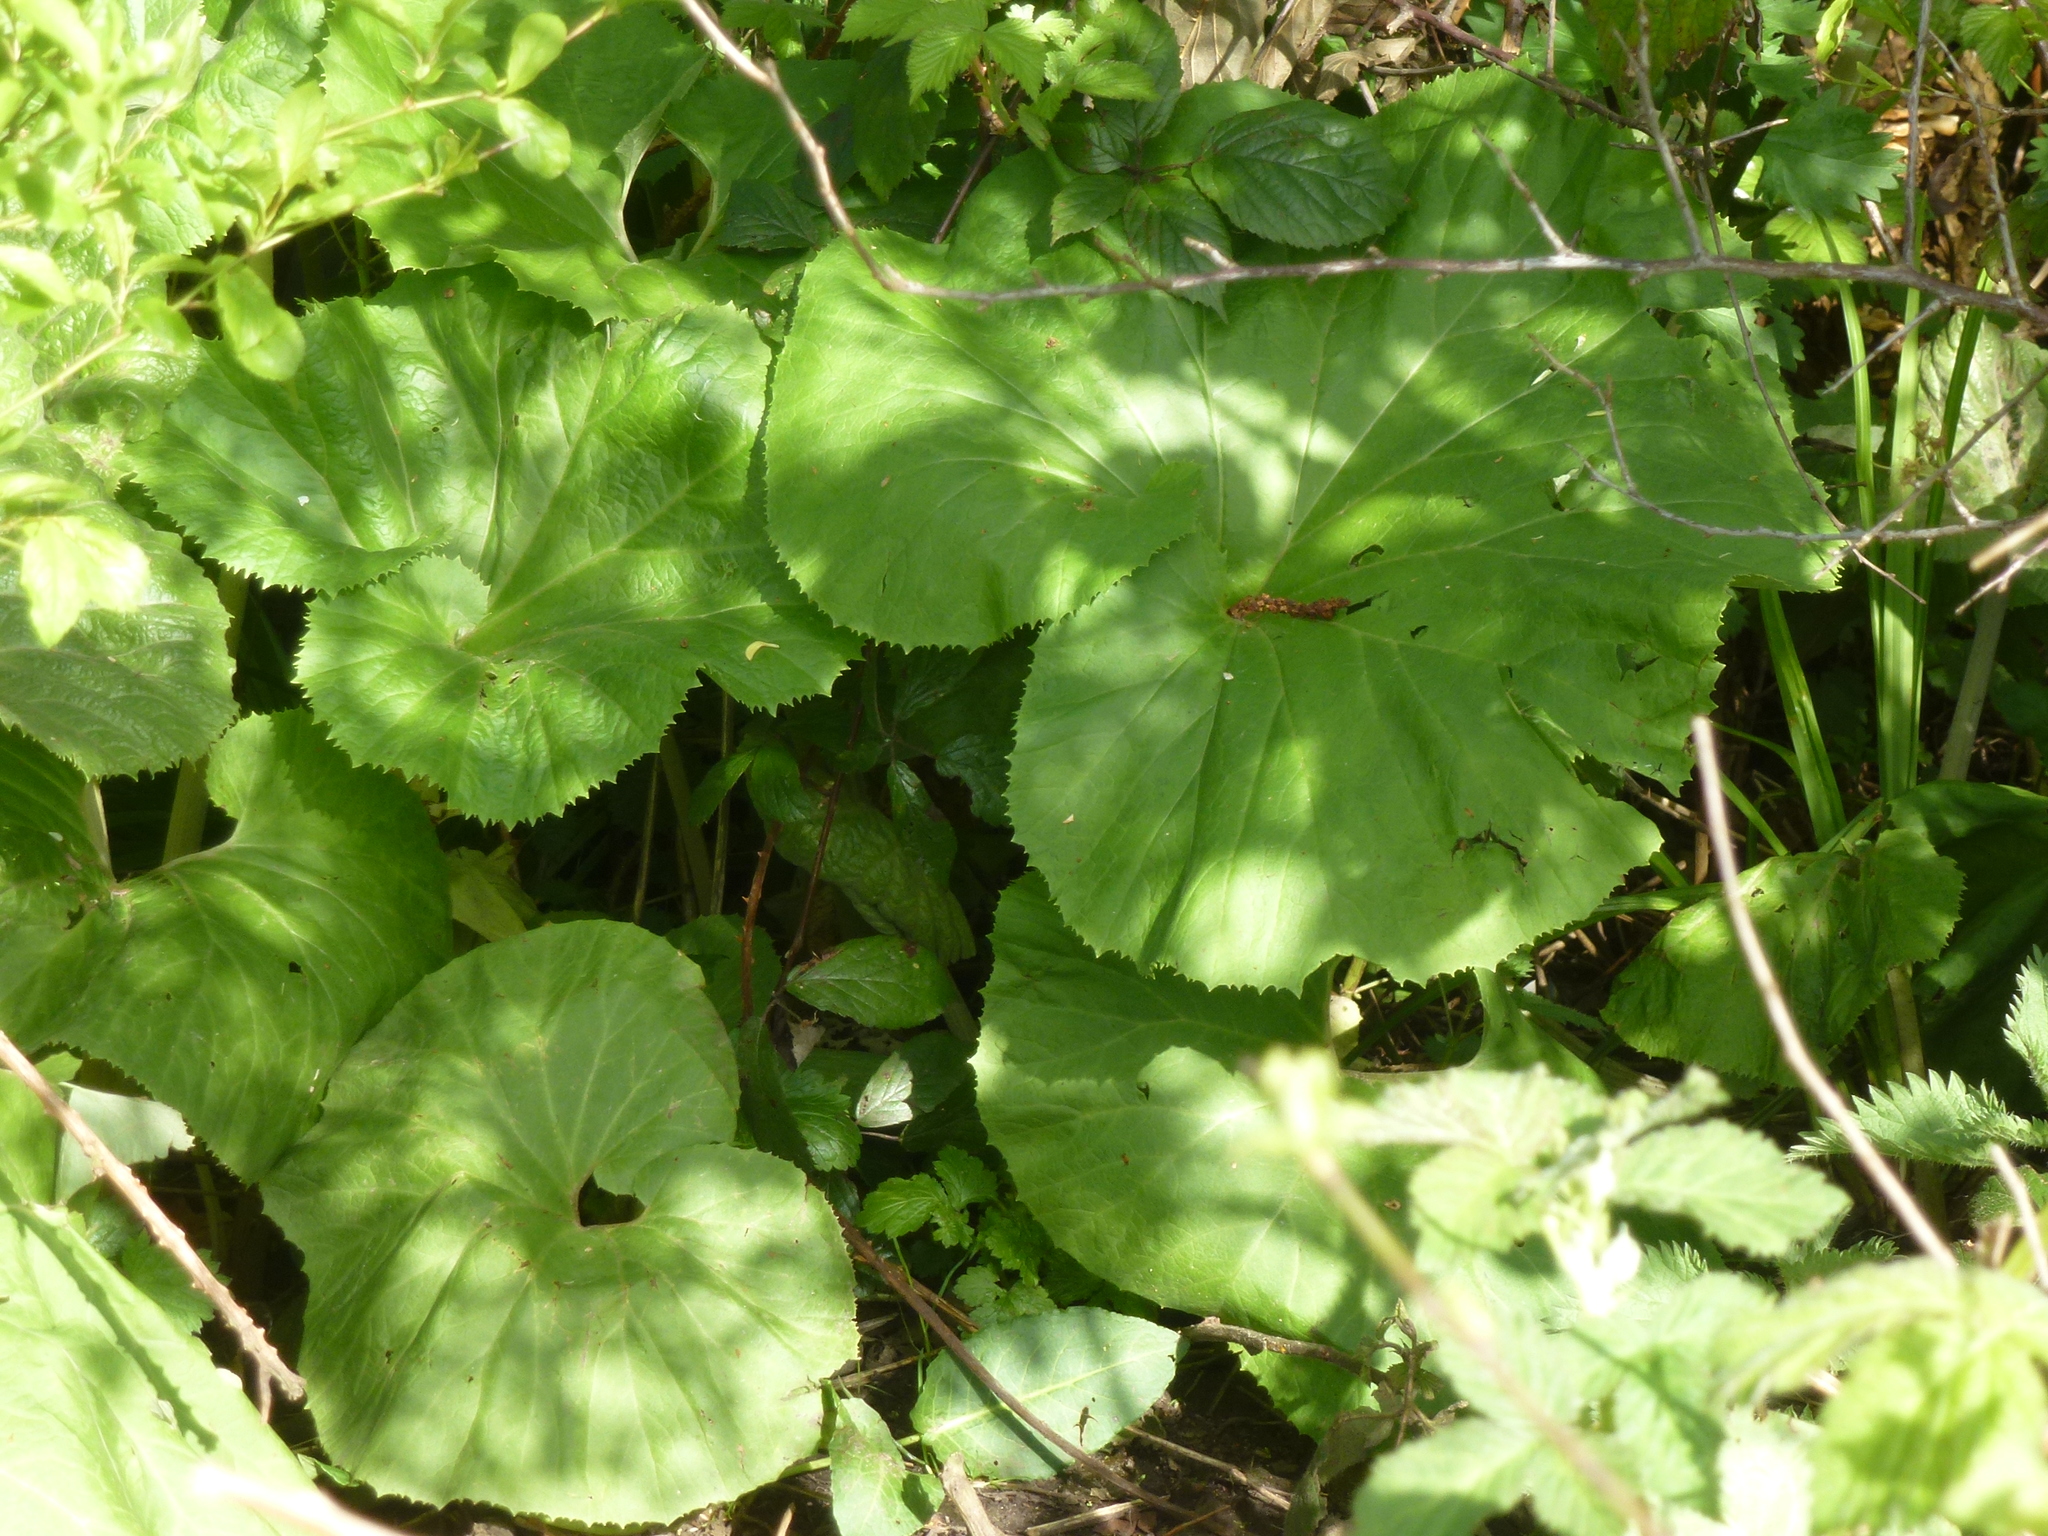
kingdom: Plantae
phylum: Tracheophyta
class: Magnoliopsida
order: Asterales
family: Asteraceae
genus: Petasites
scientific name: Petasites hybridus
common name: Butterbur
